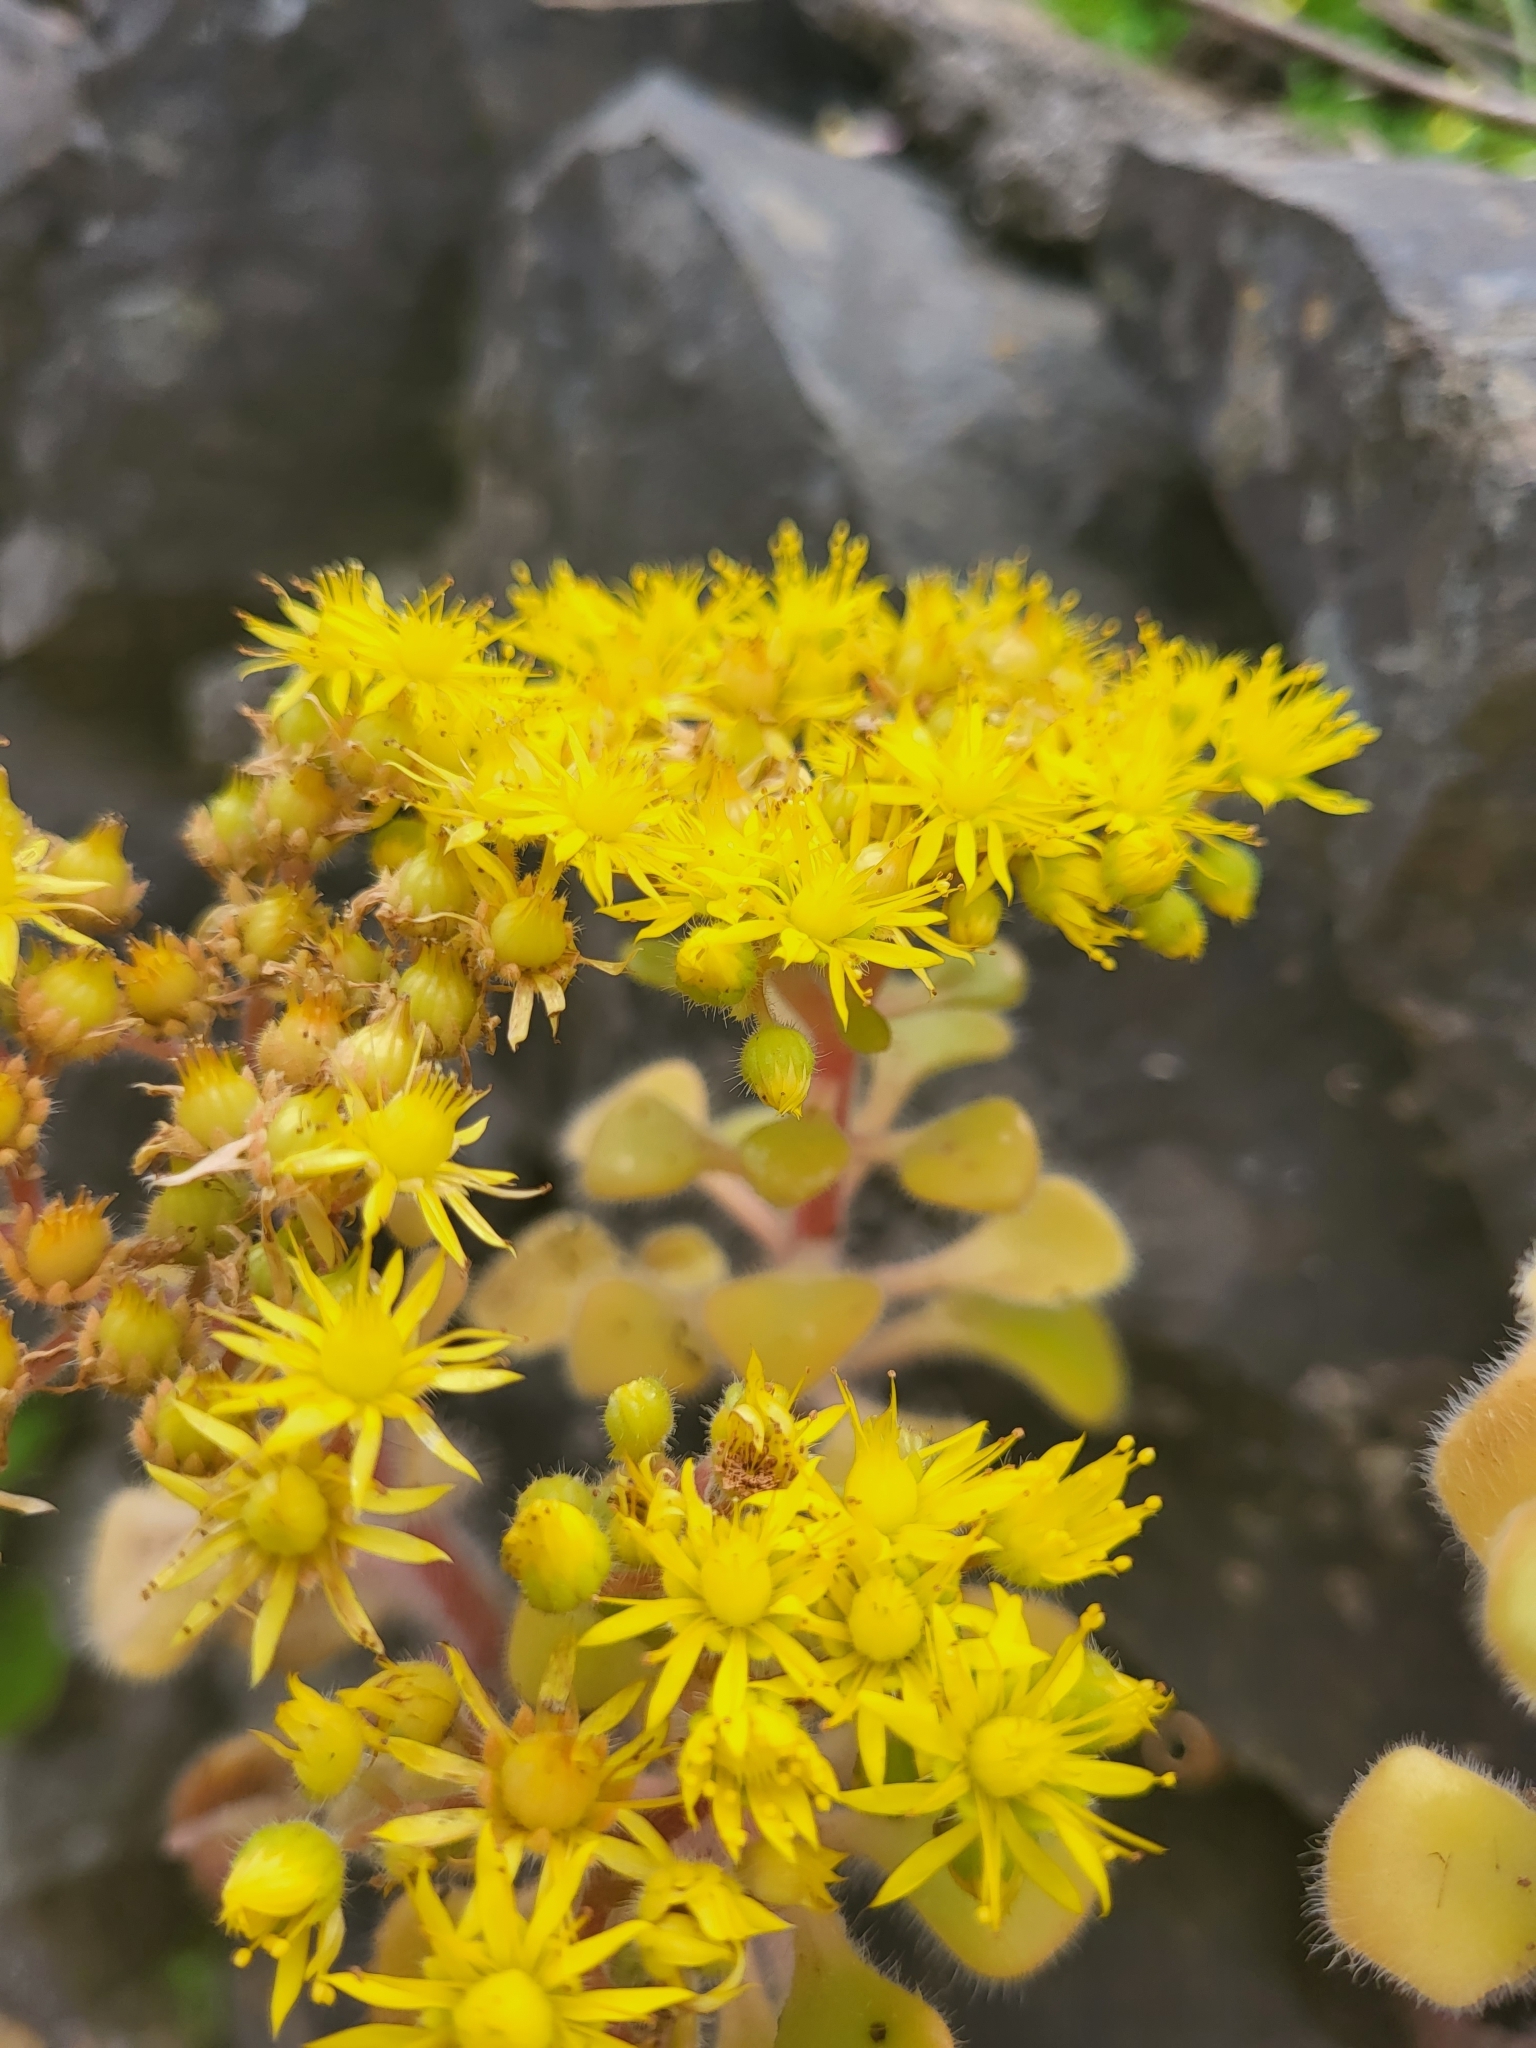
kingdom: Plantae
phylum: Tracheophyta
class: Magnoliopsida
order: Saxifragales
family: Crassulaceae
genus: Aichryson
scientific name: Aichryson laxum
